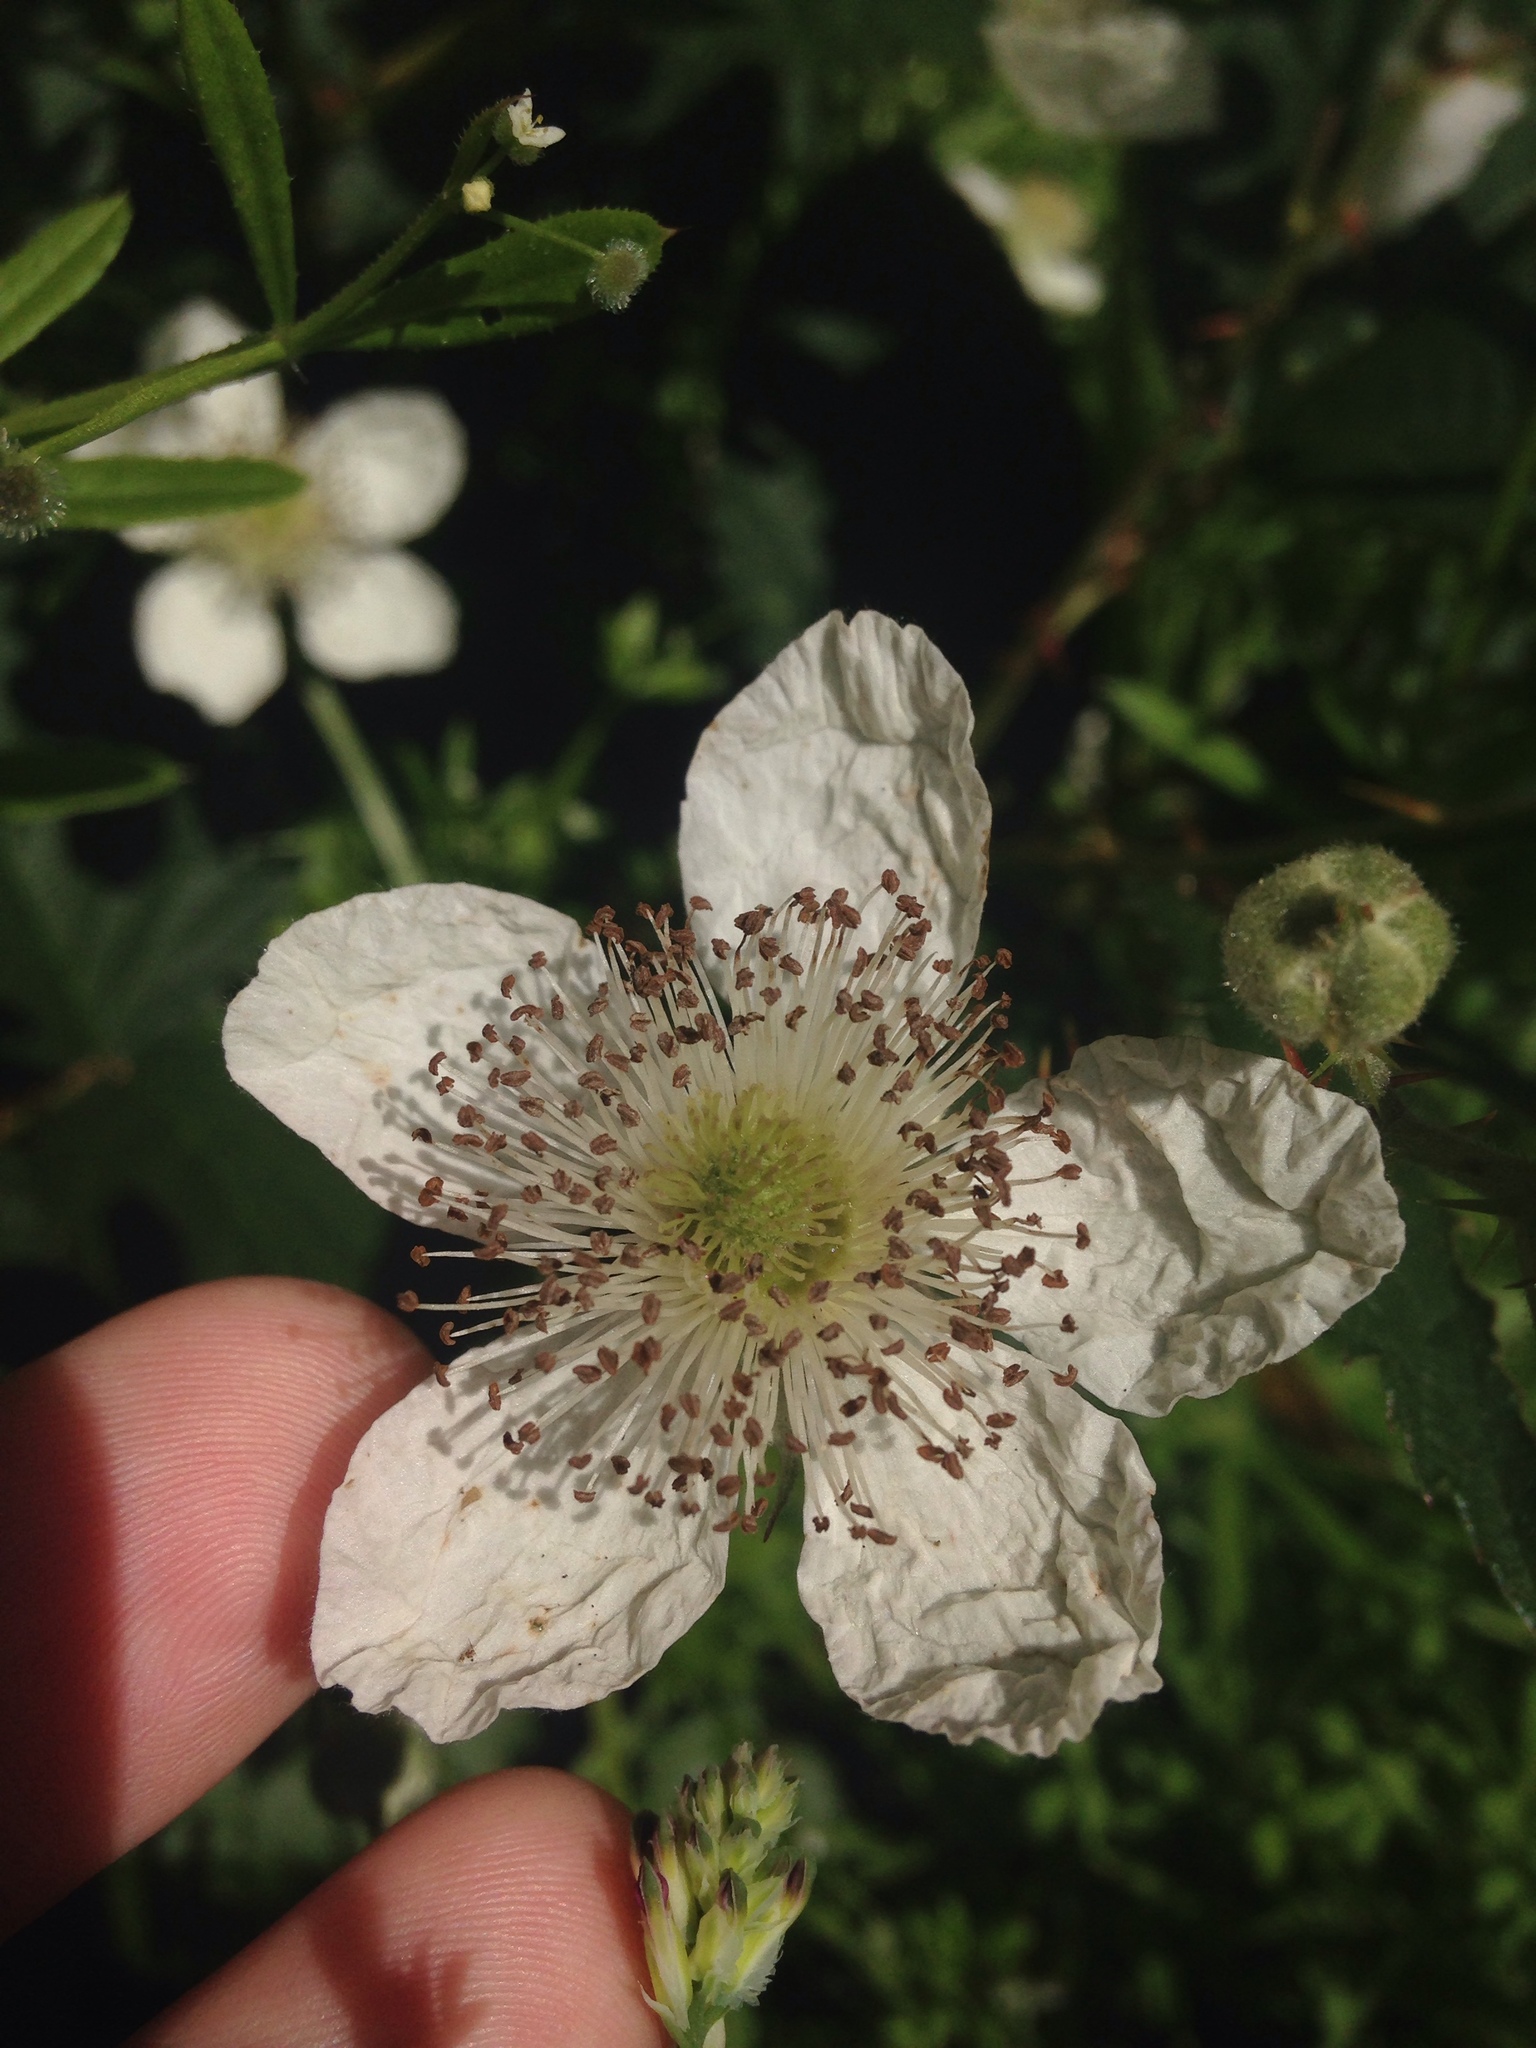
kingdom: Plantae
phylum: Tracheophyta
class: Magnoliopsida
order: Rosales
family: Rosaceae
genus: Rubus
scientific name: Rubus armeniacus
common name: Himalayan blackberry
